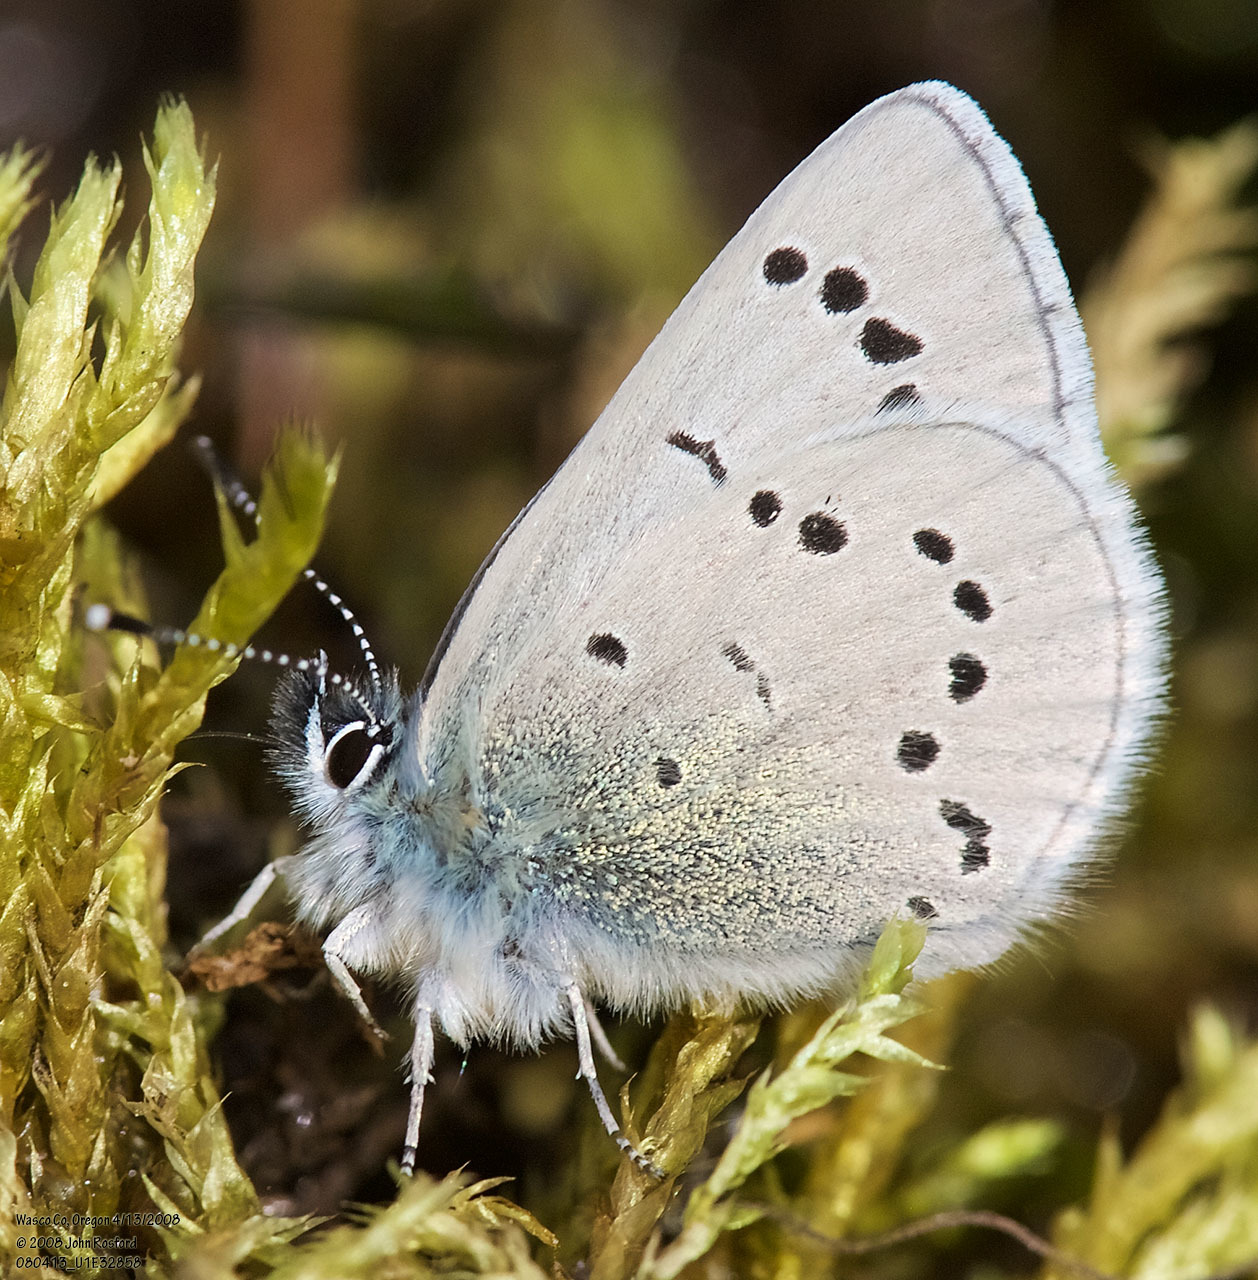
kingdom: Animalia
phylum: Arthropoda
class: Insecta
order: Lepidoptera
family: Lycaenidae
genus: Glaucopsyche
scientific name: Glaucopsyche lygdamus
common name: Silvery blue
